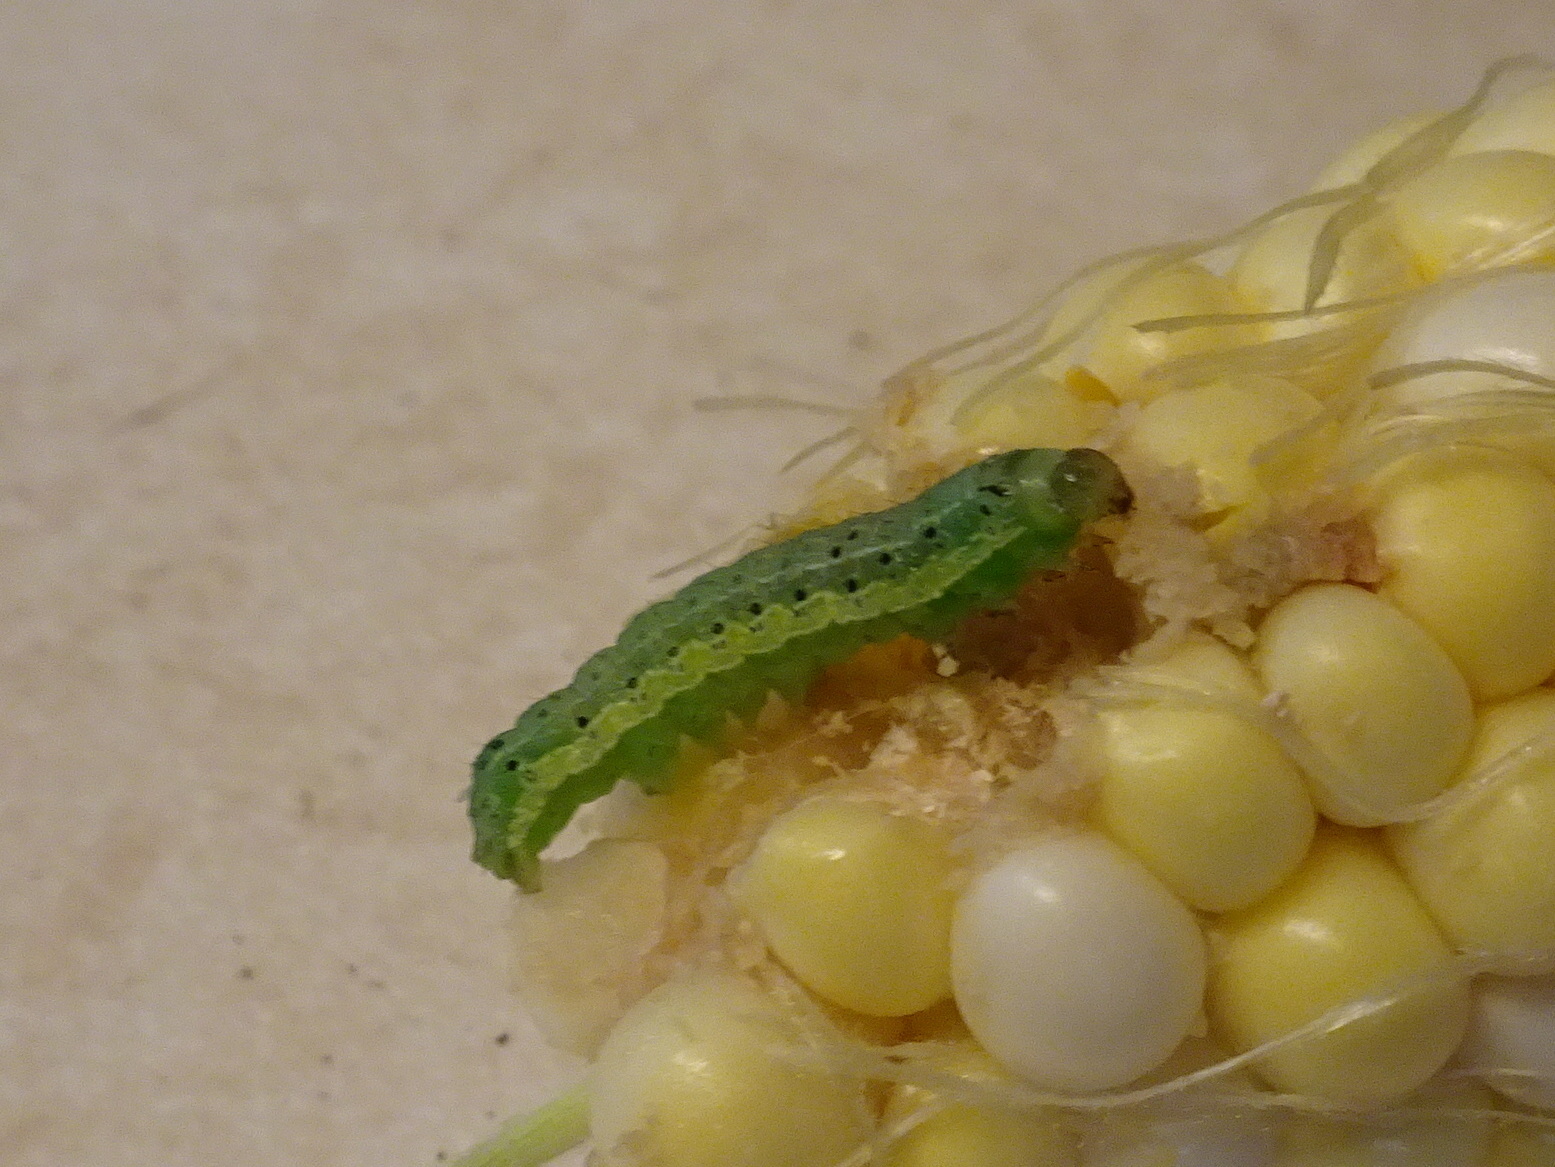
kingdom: Animalia
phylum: Arthropoda
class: Insecta
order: Lepidoptera
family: Noctuidae
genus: Helicoverpa
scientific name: Helicoverpa zea
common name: Bollworm
